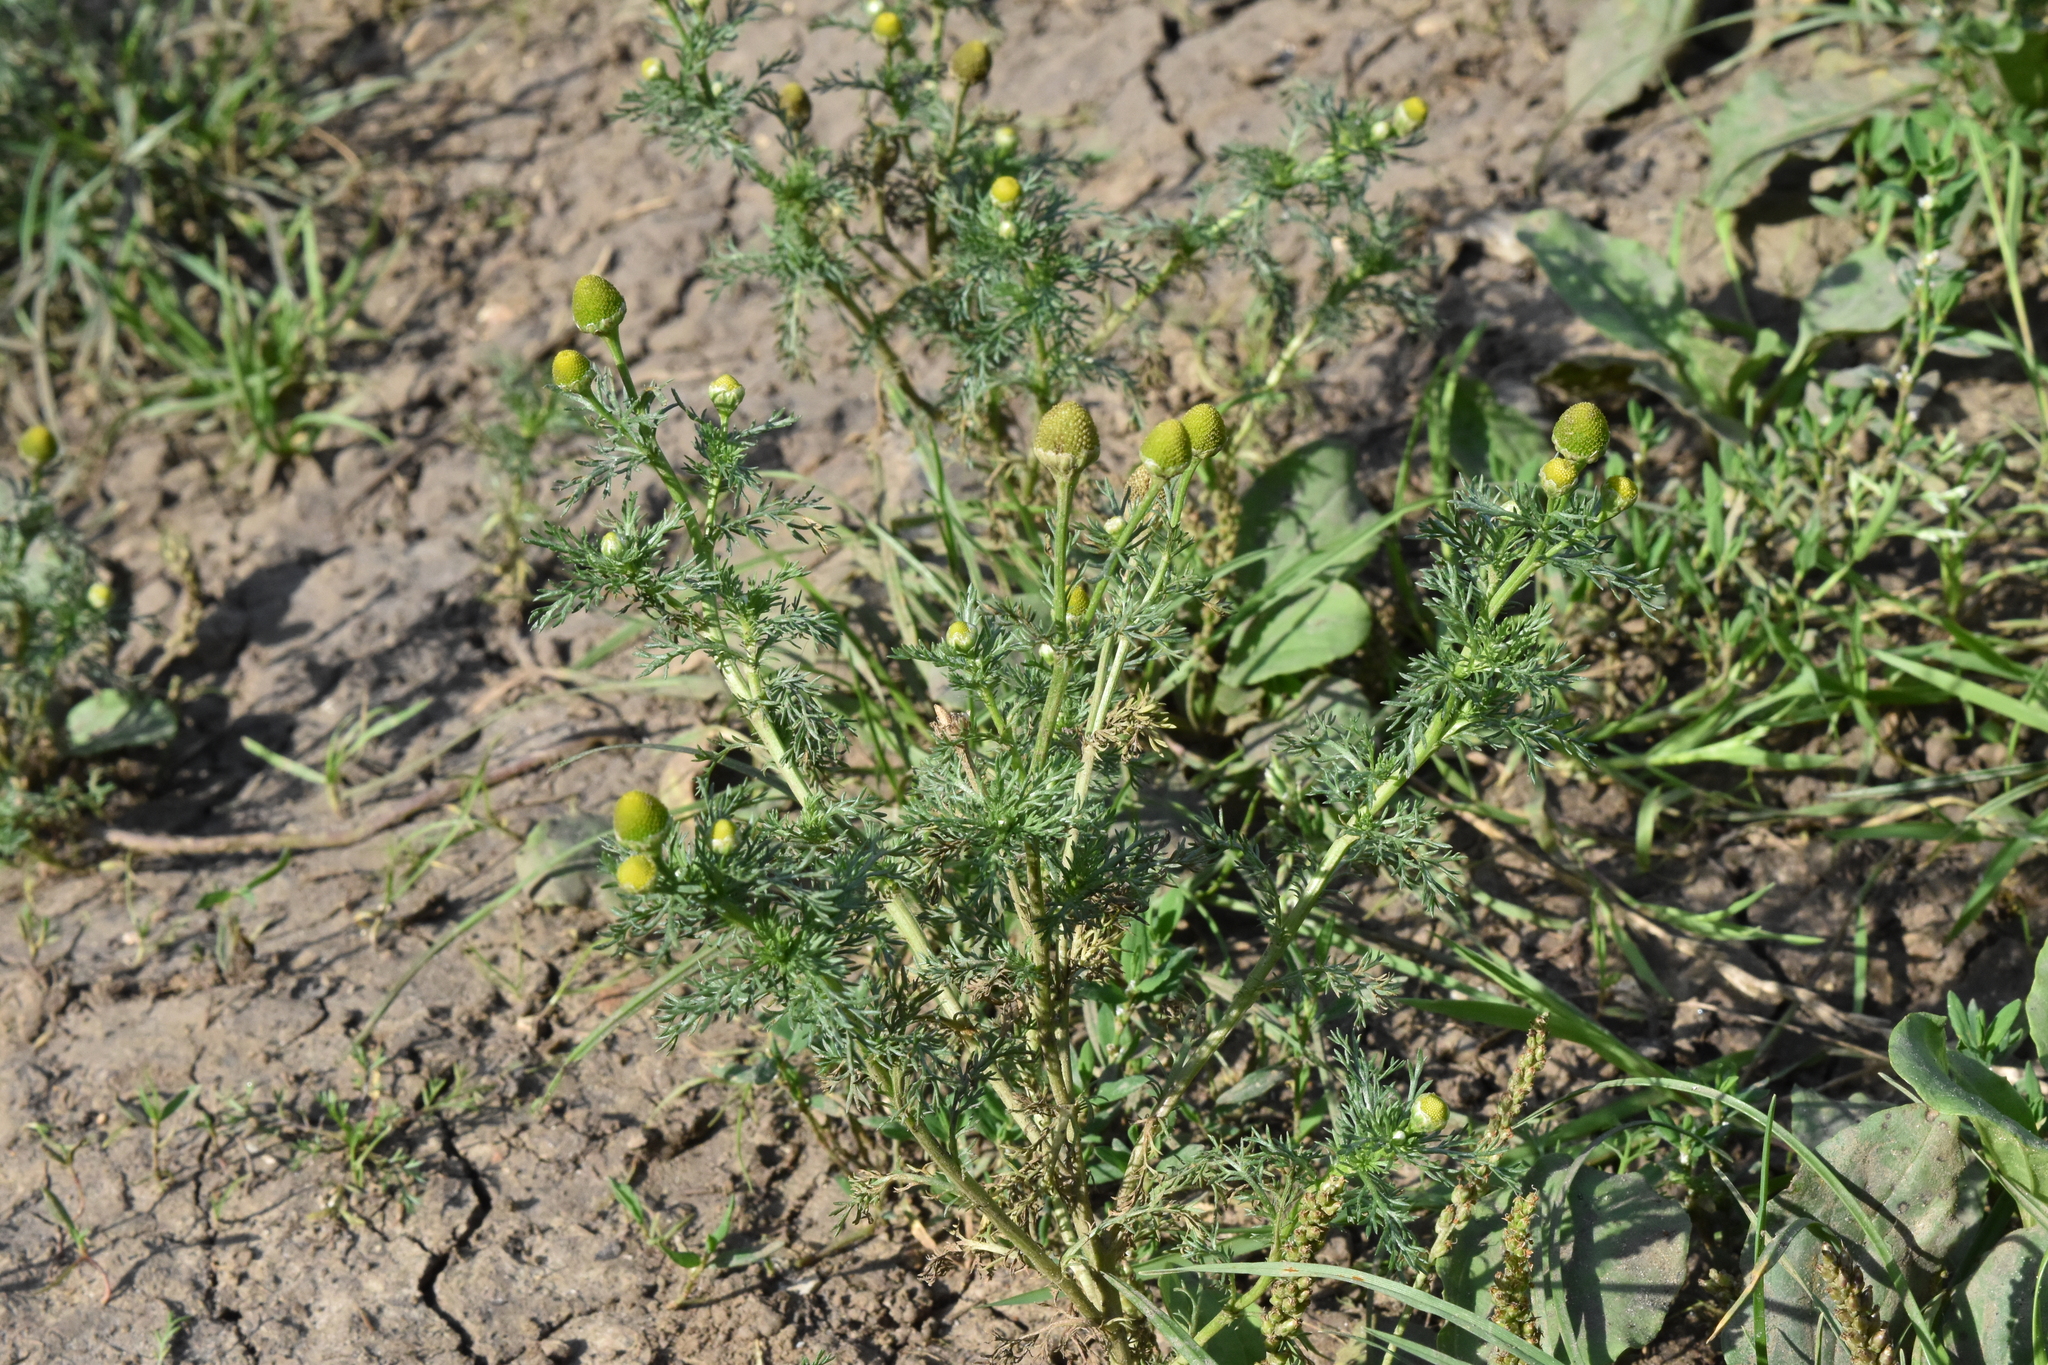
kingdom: Plantae
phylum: Tracheophyta
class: Magnoliopsida
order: Asterales
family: Asteraceae
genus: Matricaria
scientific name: Matricaria discoidea
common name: Disc mayweed
